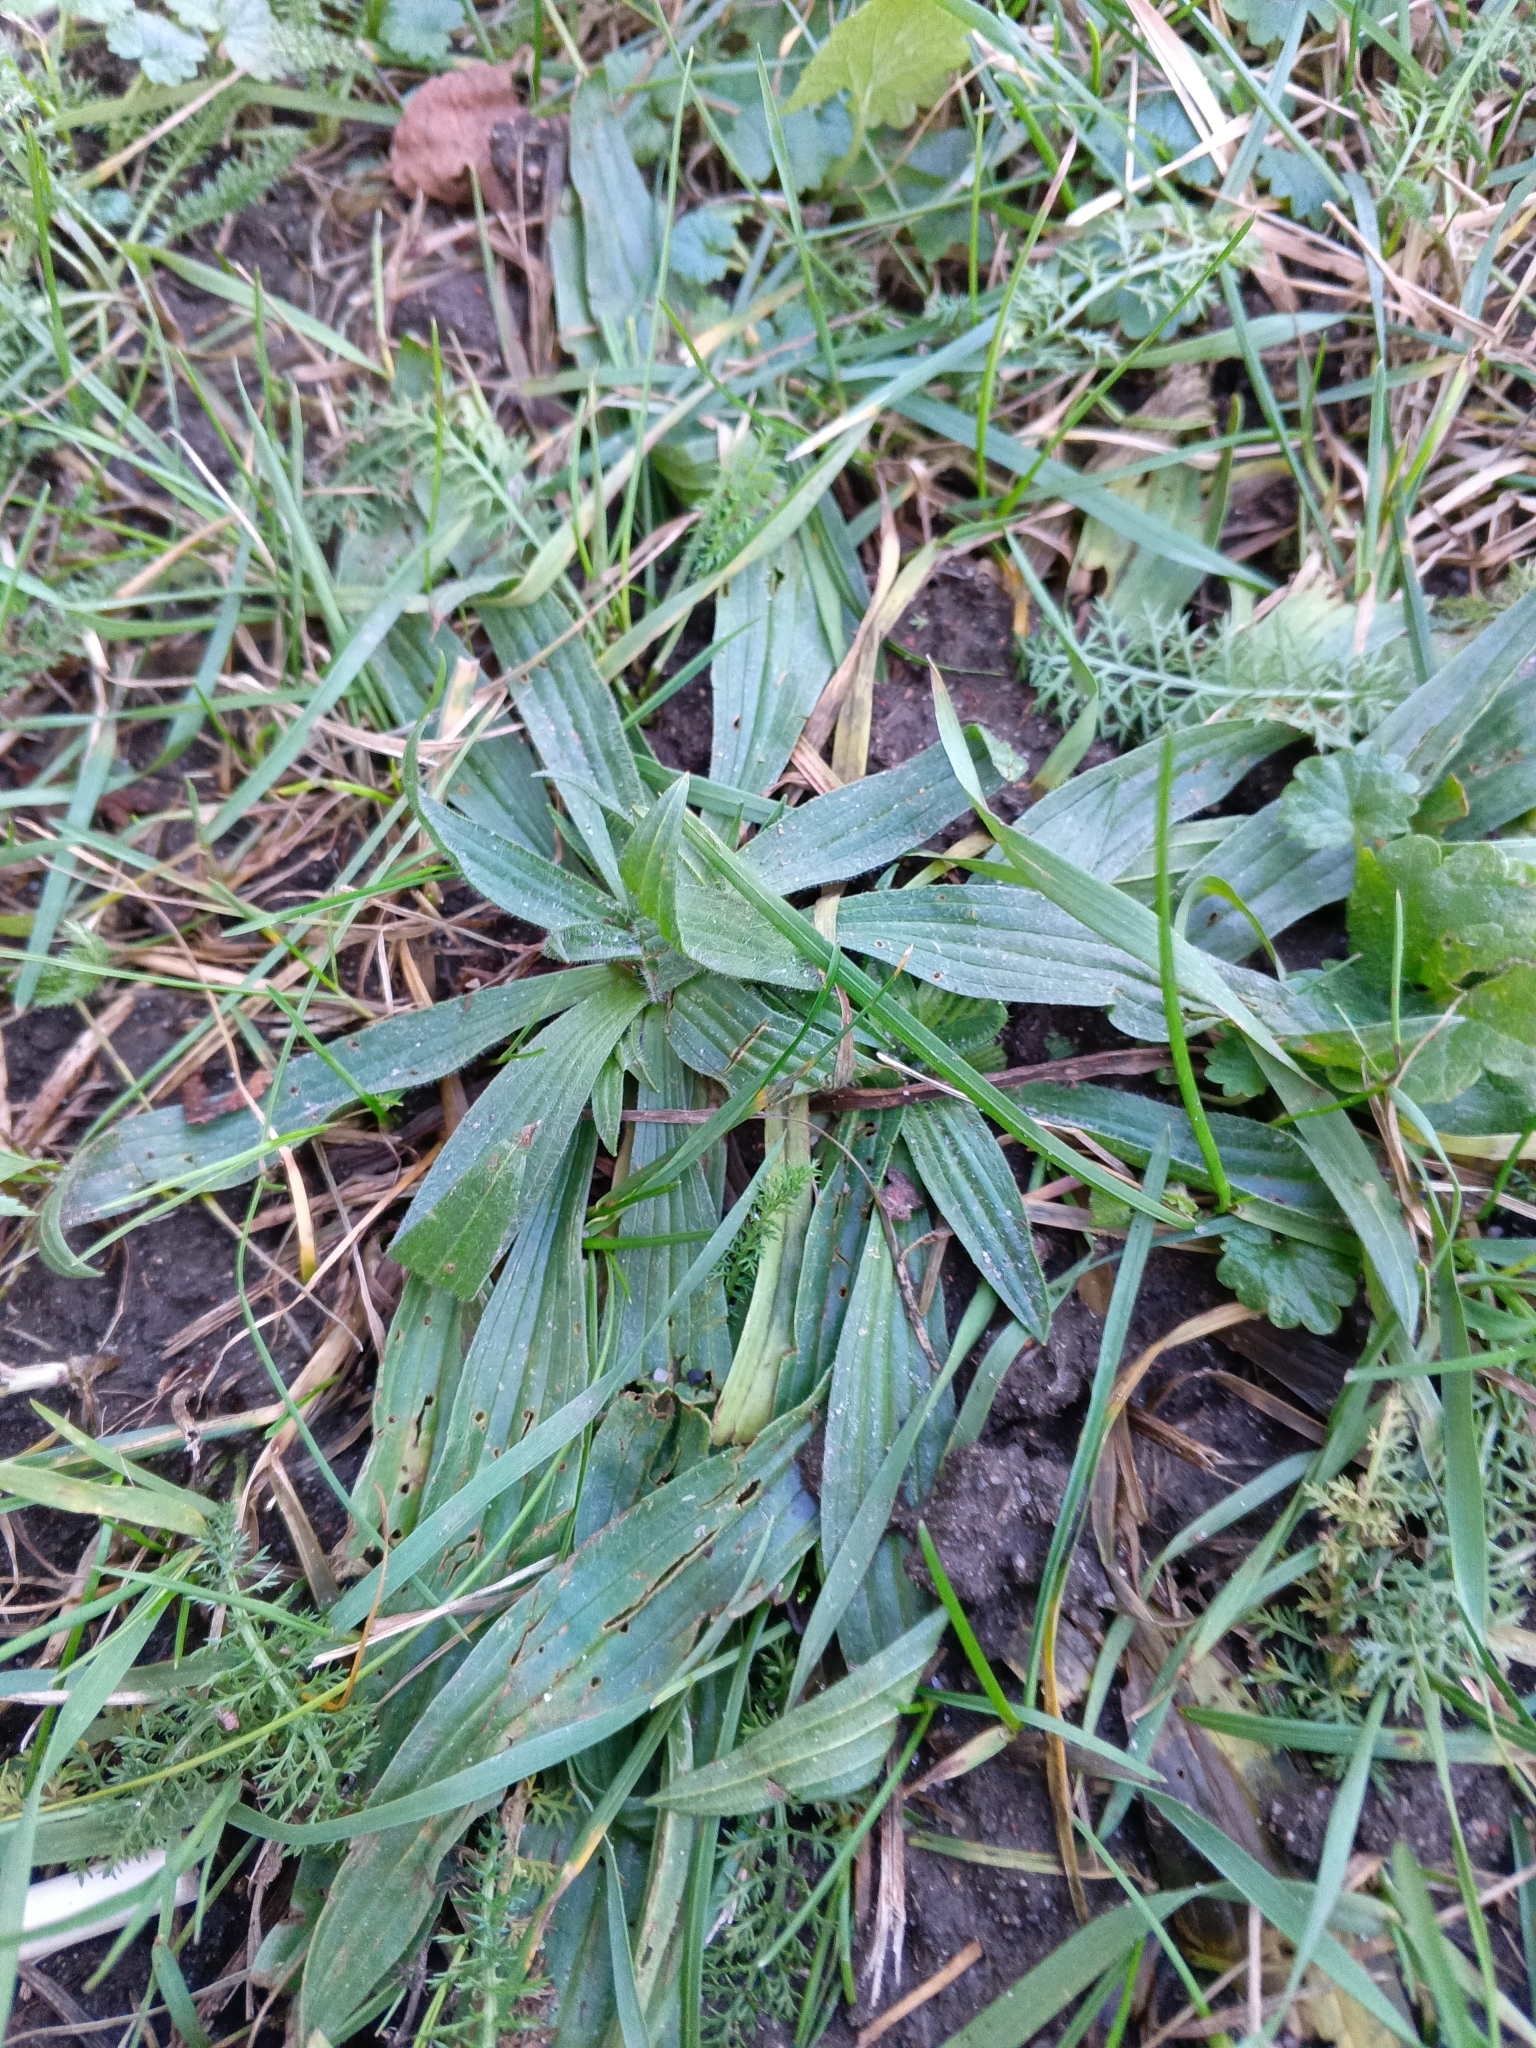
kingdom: Plantae
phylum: Tracheophyta
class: Magnoliopsida
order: Lamiales
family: Plantaginaceae
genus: Plantago
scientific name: Plantago lanceolata
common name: Ribwort plantain
